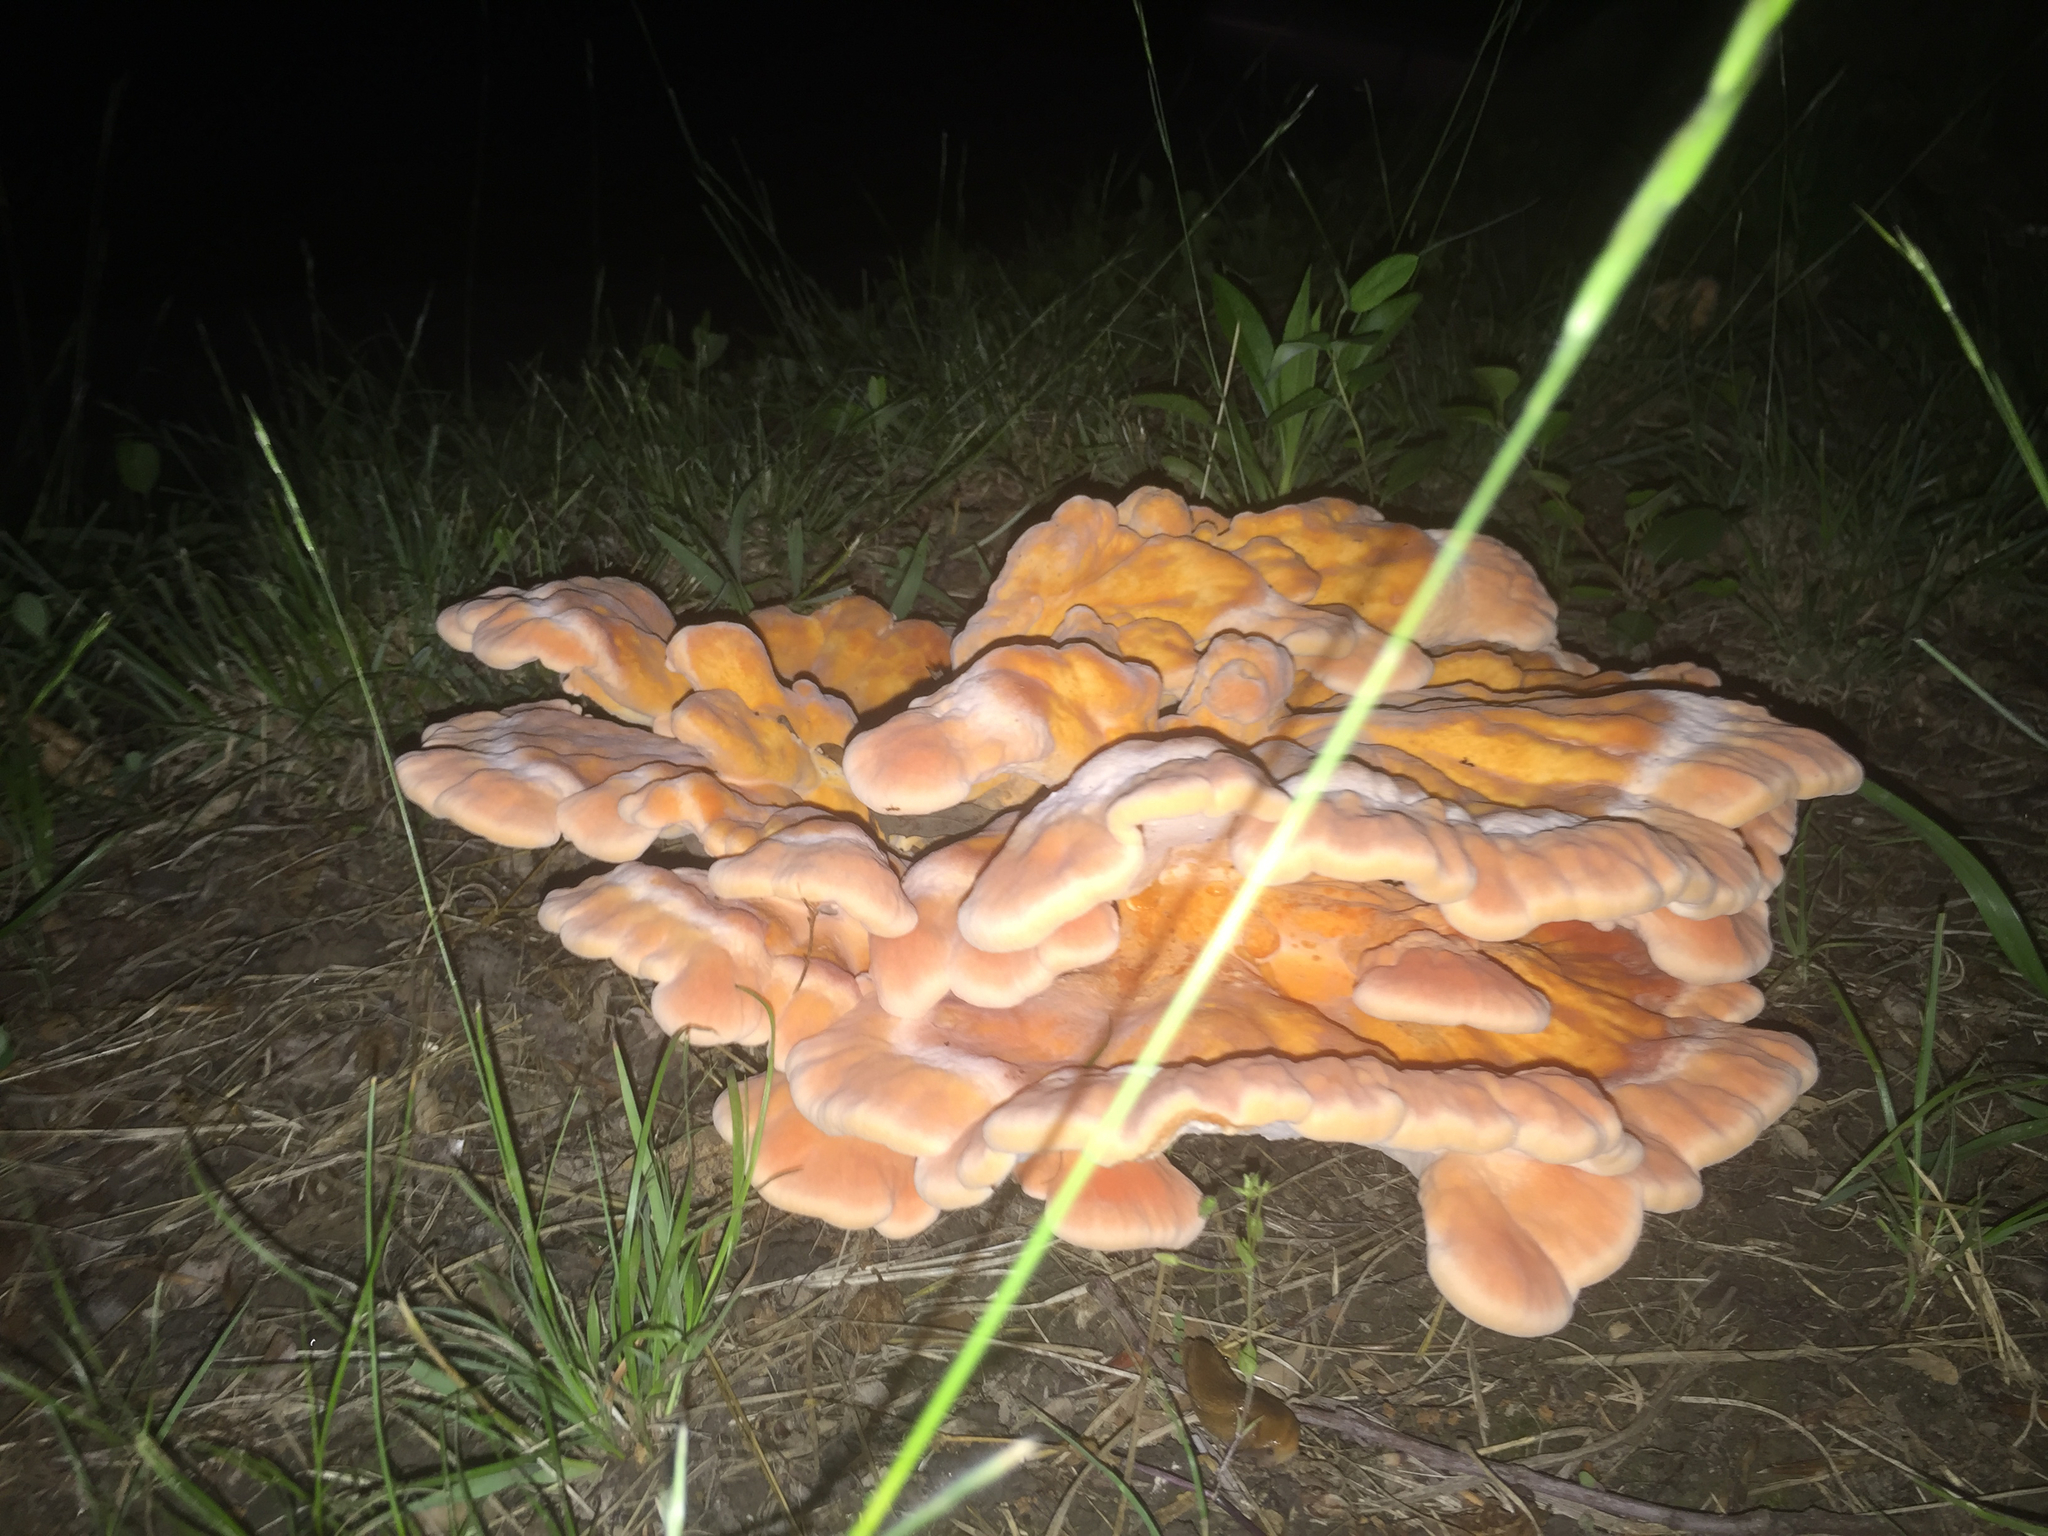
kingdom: Fungi
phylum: Basidiomycota
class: Agaricomycetes
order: Polyporales
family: Laetiporaceae
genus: Laetiporus
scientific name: Laetiporus sulphureus
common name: Chicken of the woods
